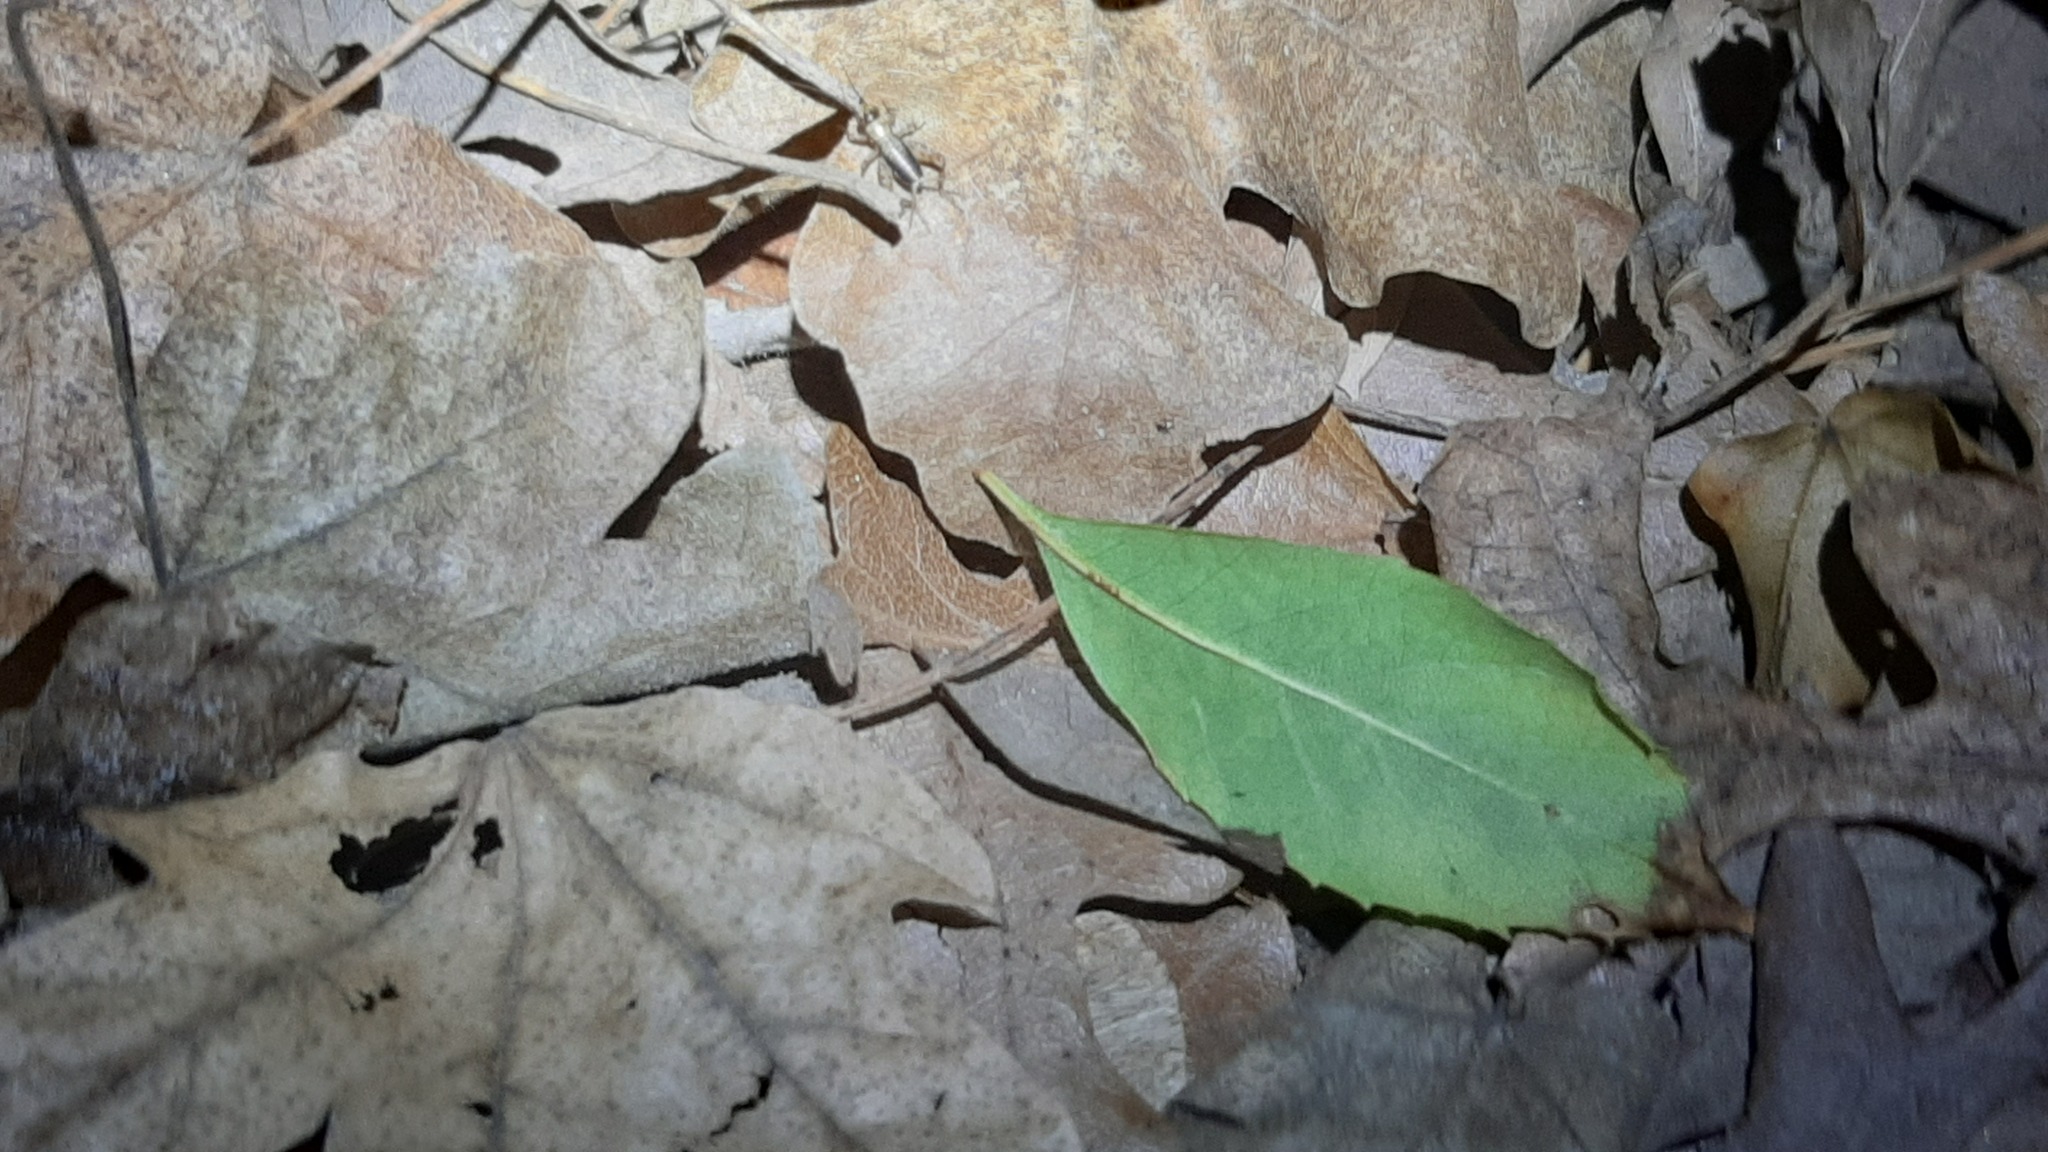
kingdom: Animalia
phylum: Arthropoda
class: Insecta
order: Orthoptera
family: Trigonidiidae
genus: Nemobius
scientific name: Nemobius sylvestris
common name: Wood-cricket
